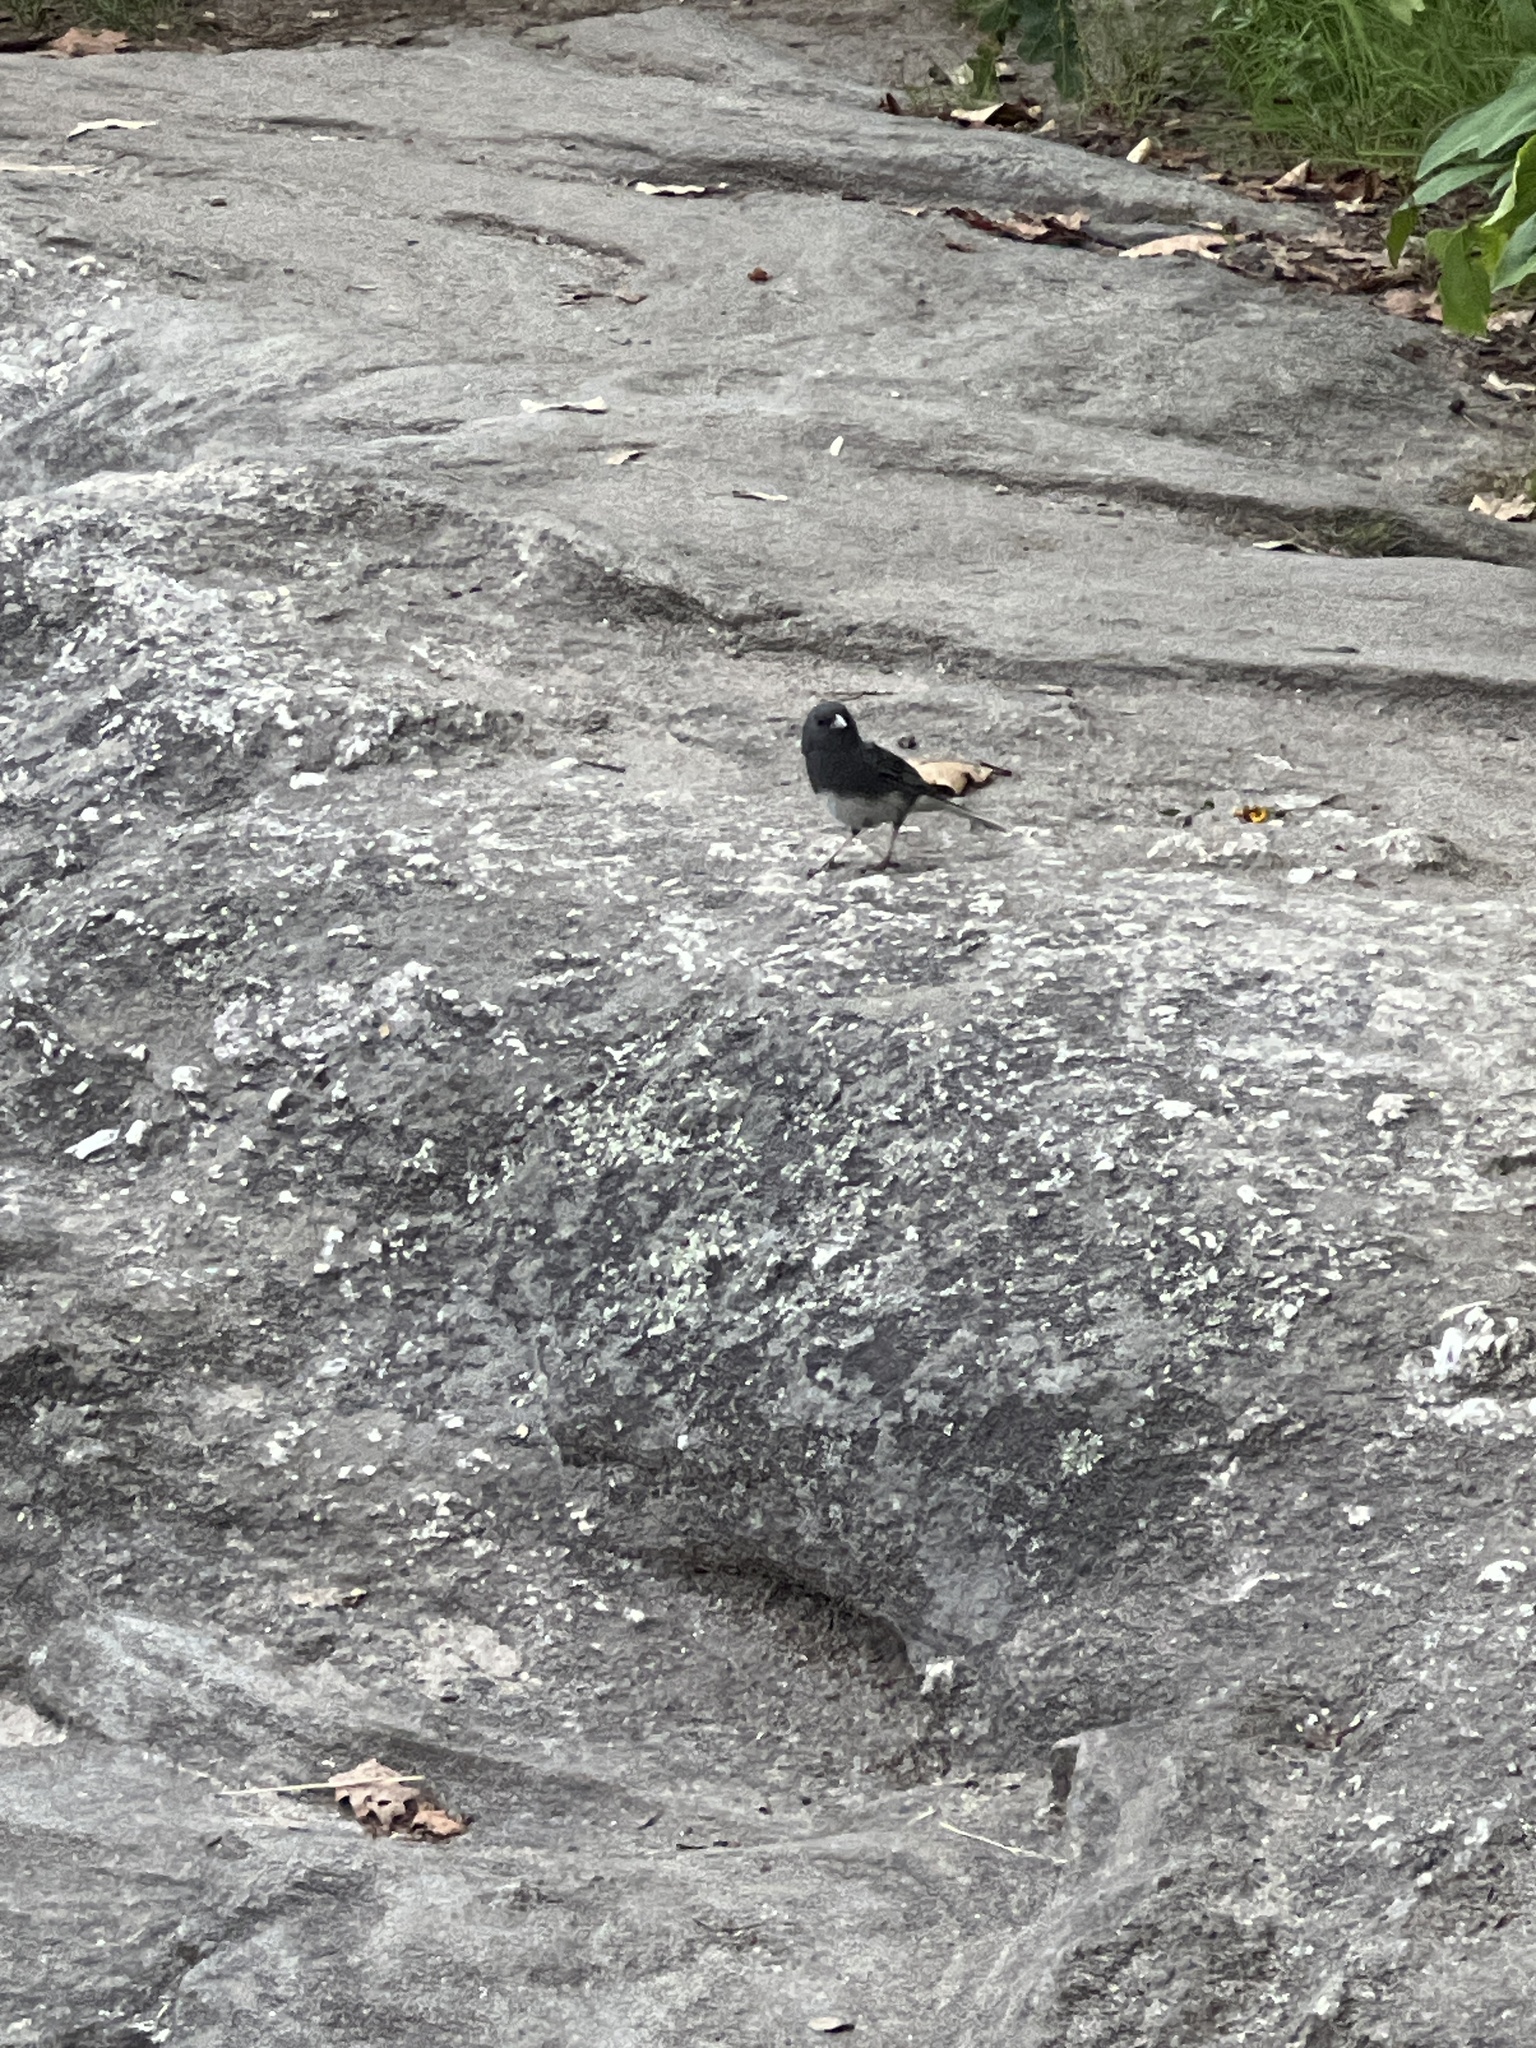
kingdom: Animalia
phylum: Chordata
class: Aves
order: Passeriformes
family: Passerellidae
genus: Junco
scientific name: Junco hyemalis
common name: Dark-eyed junco
